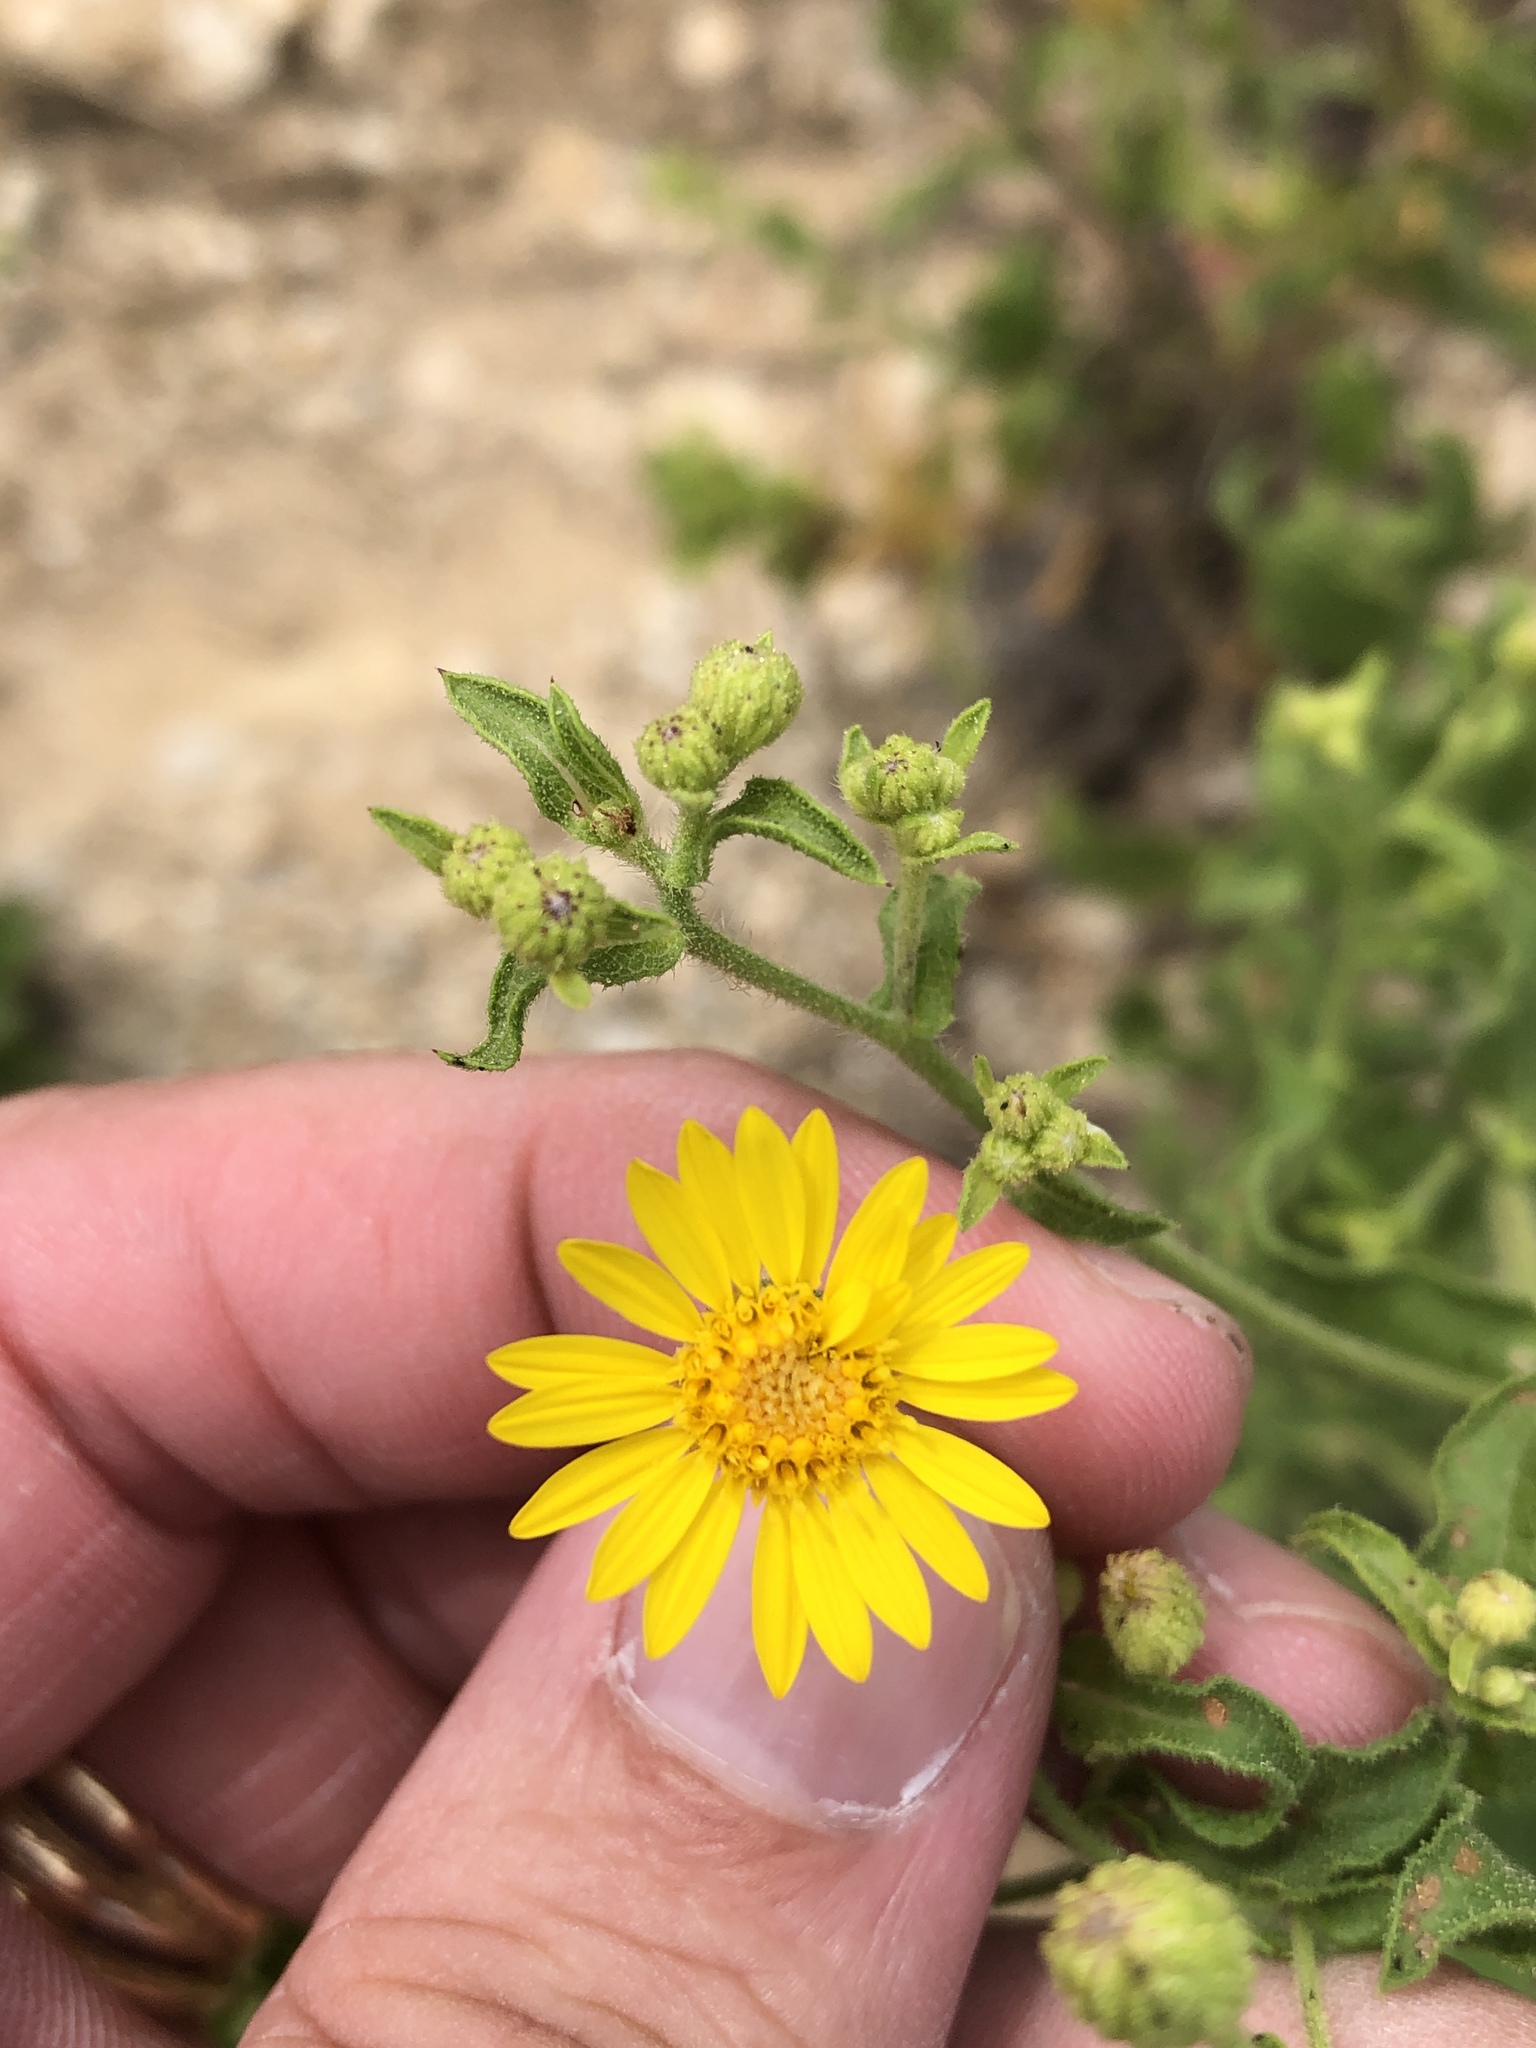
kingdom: Plantae
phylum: Tracheophyta
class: Magnoliopsida
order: Asterales
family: Asteraceae
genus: Heterotheca
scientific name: Heterotheca subaxillaris
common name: Camphorweed
